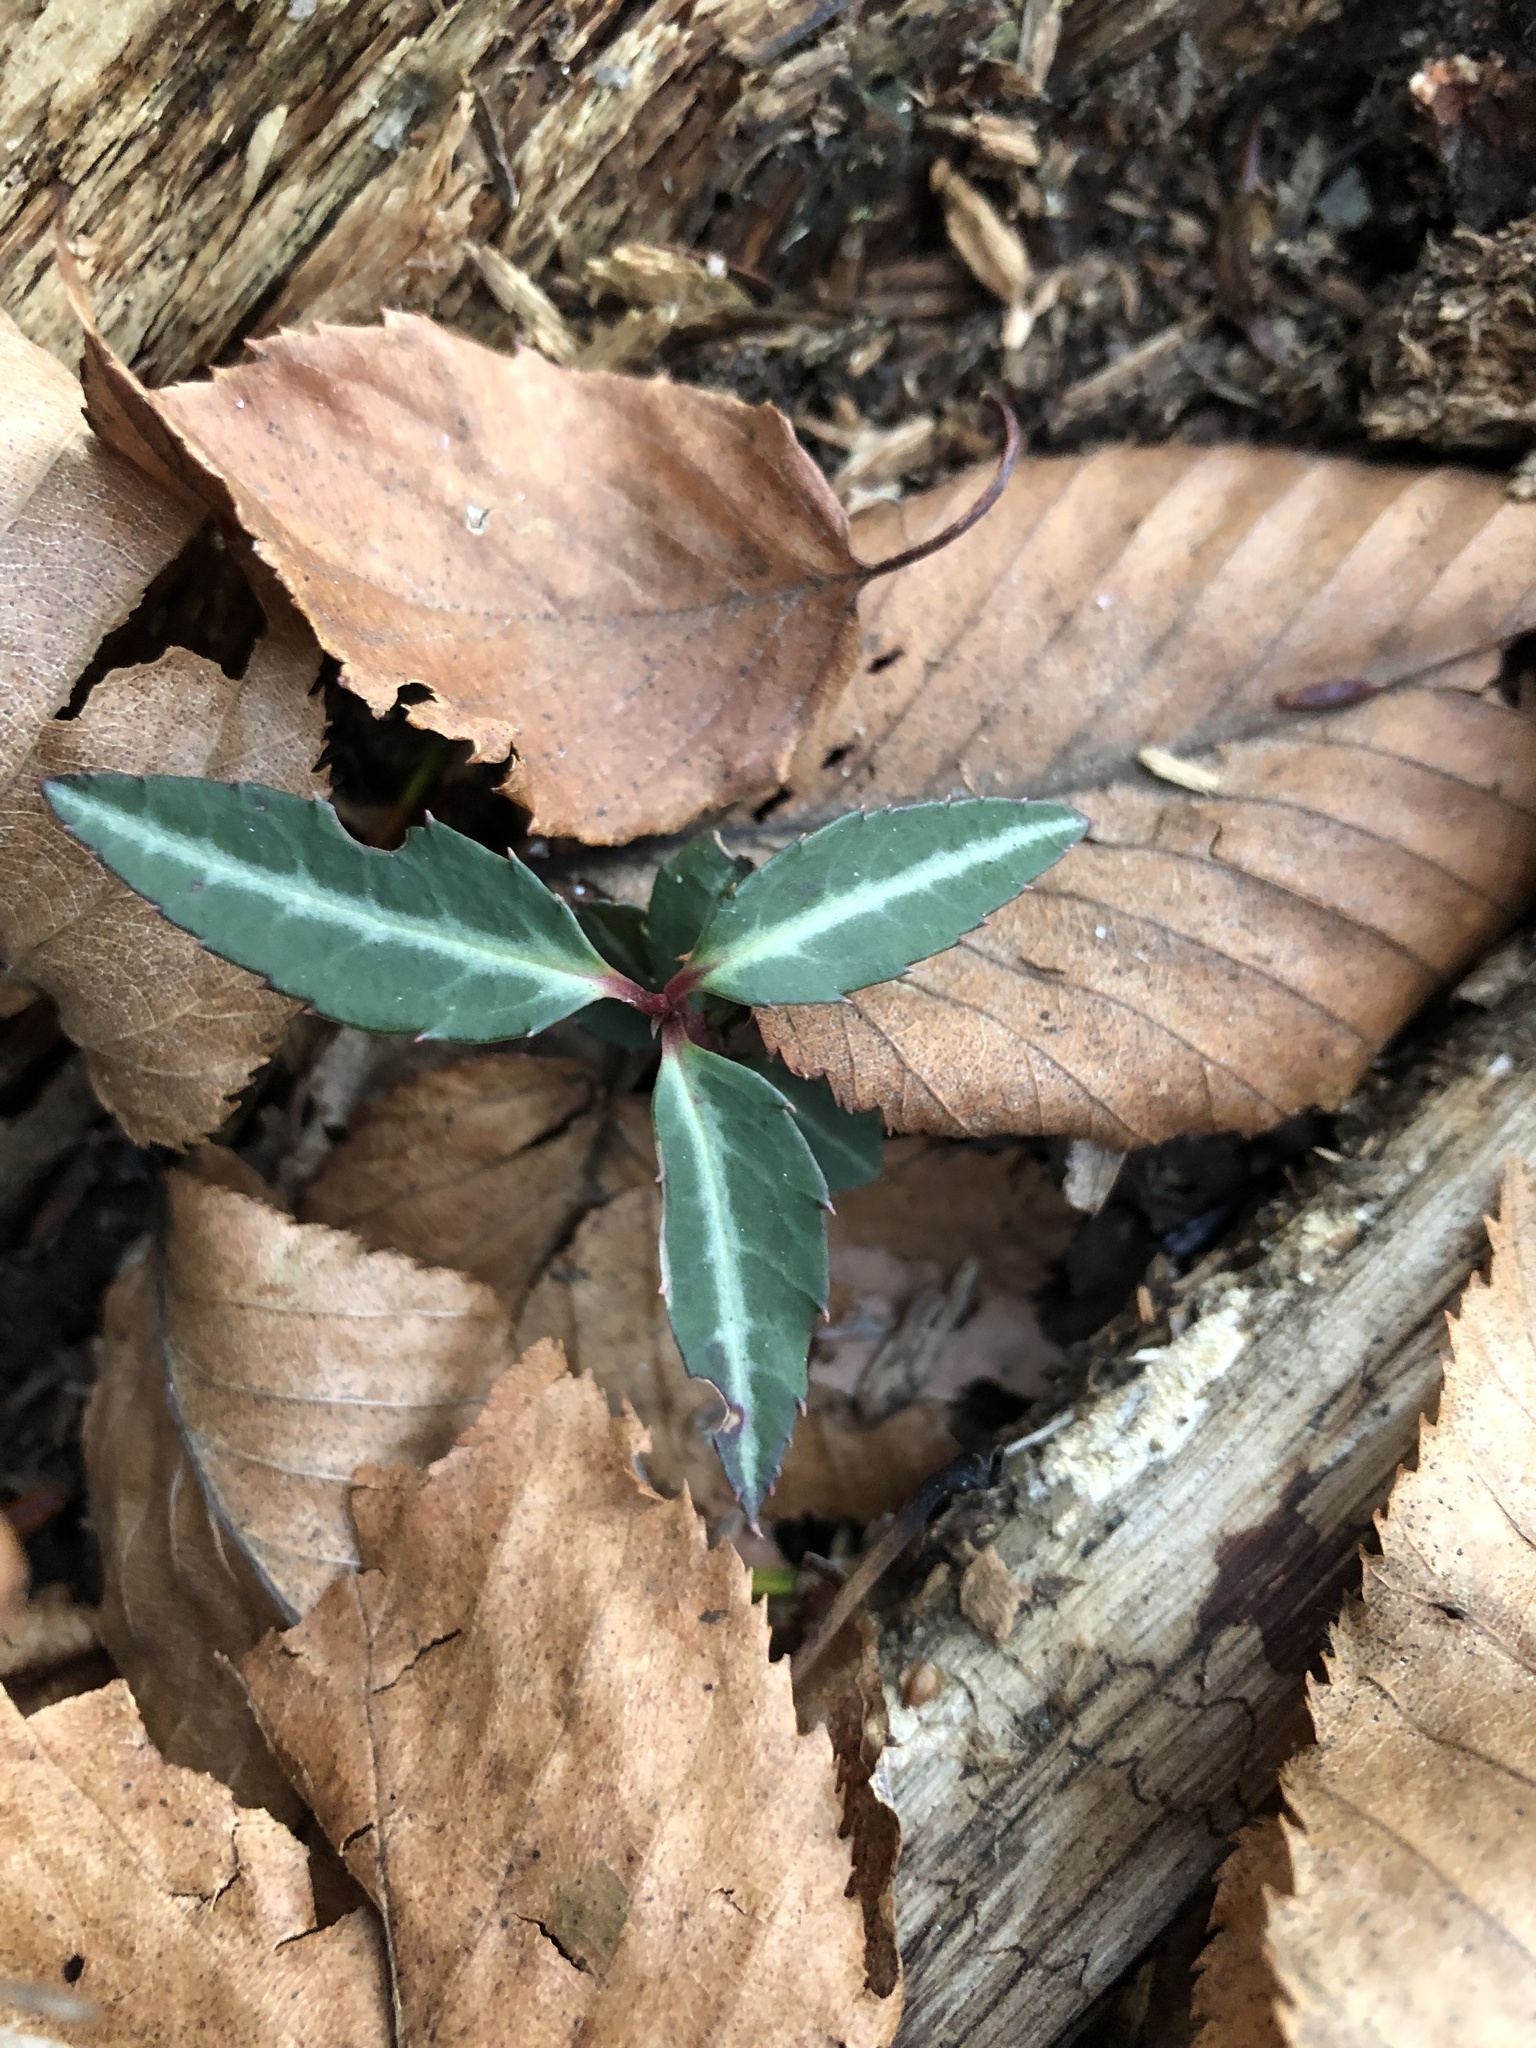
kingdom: Plantae
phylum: Tracheophyta
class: Magnoliopsida
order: Ericales
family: Ericaceae
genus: Chimaphila
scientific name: Chimaphila maculata
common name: Spotted pipsissewa
